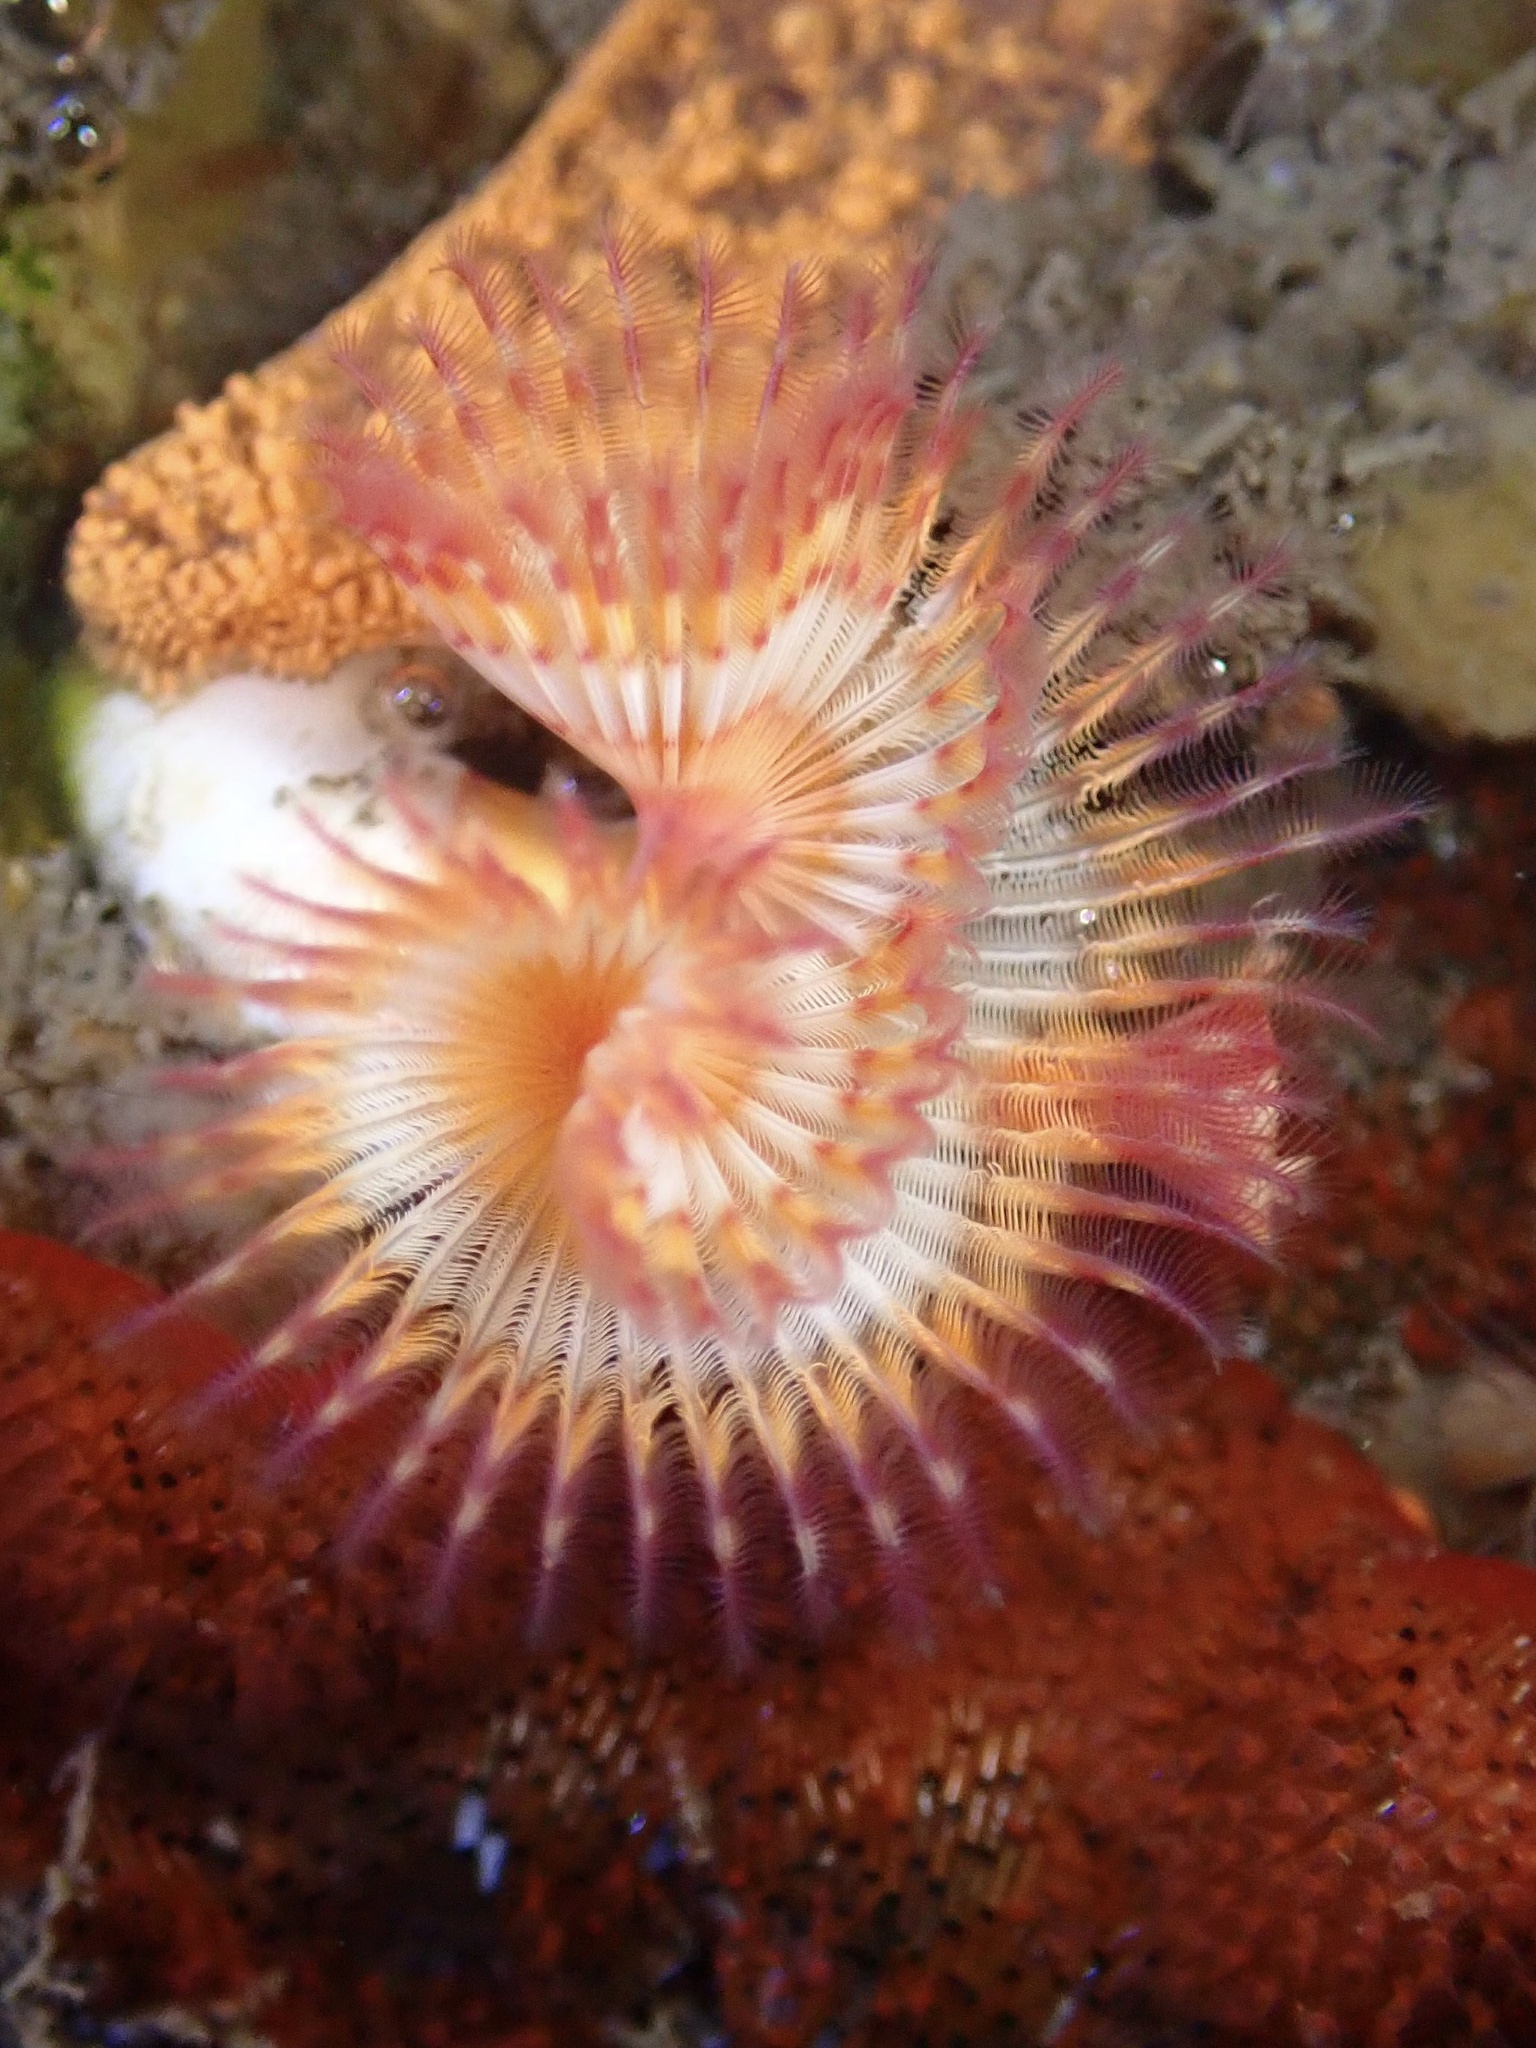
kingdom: Animalia
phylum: Annelida
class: Polychaeta
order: Sabellida
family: Serpulidae
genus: Serpula
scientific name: Serpula columbiana
